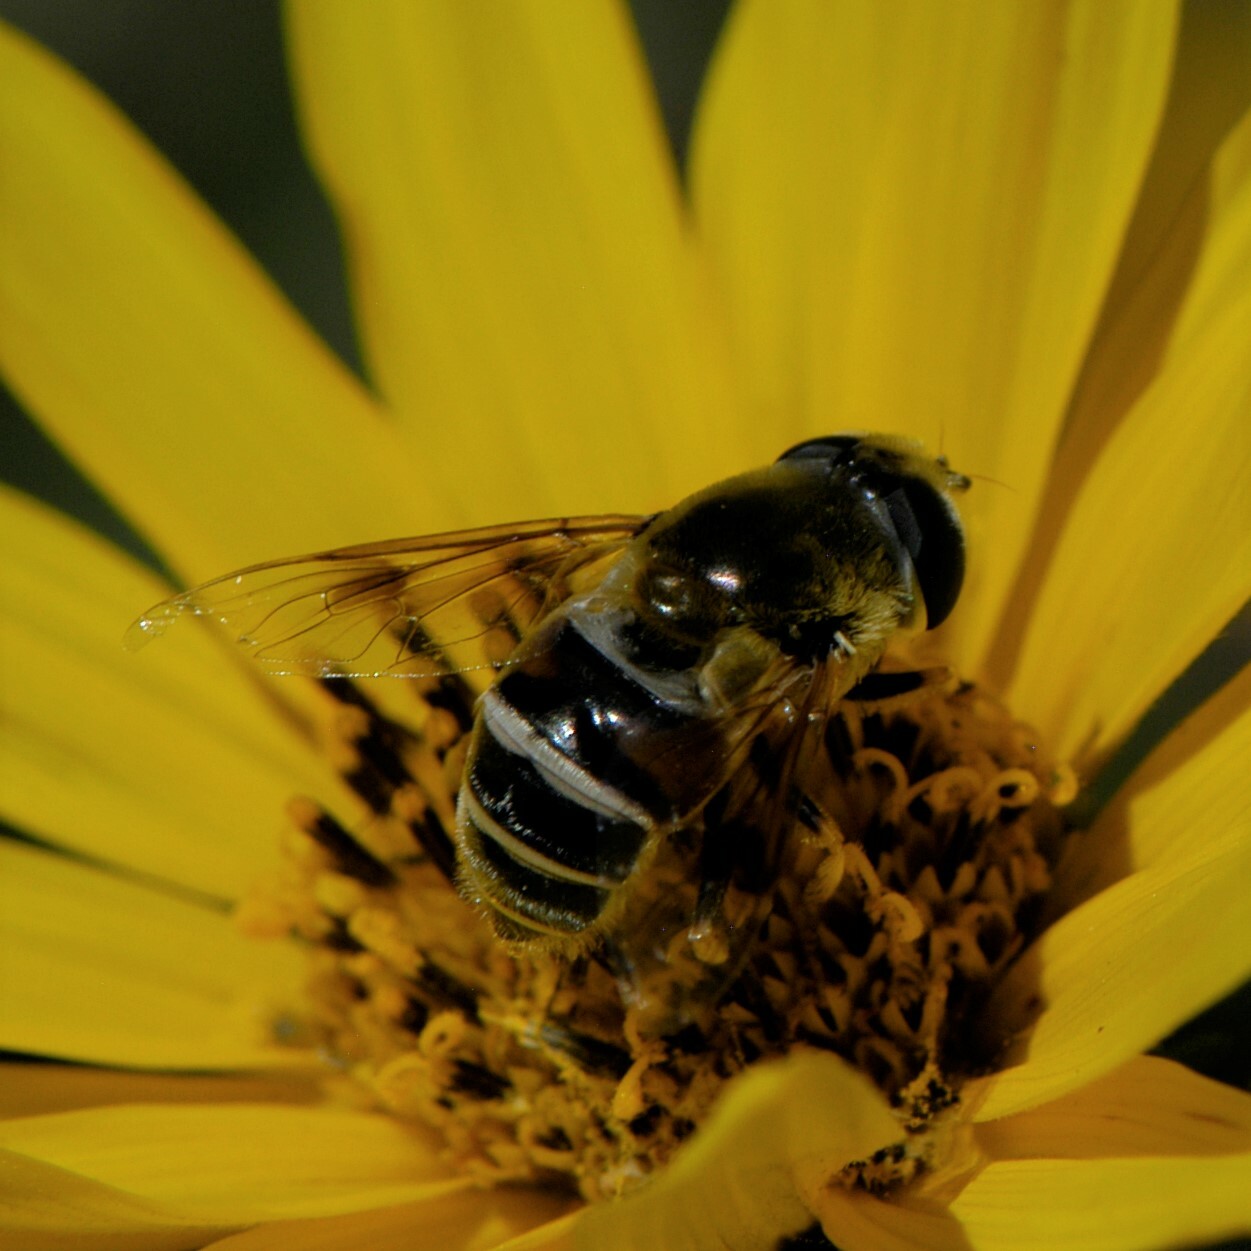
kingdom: Animalia
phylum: Arthropoda
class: Insecta
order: Diptera
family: Syrphidae
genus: Eristalis
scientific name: Eristalis stipator
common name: Yellow-shouldered drone fly
